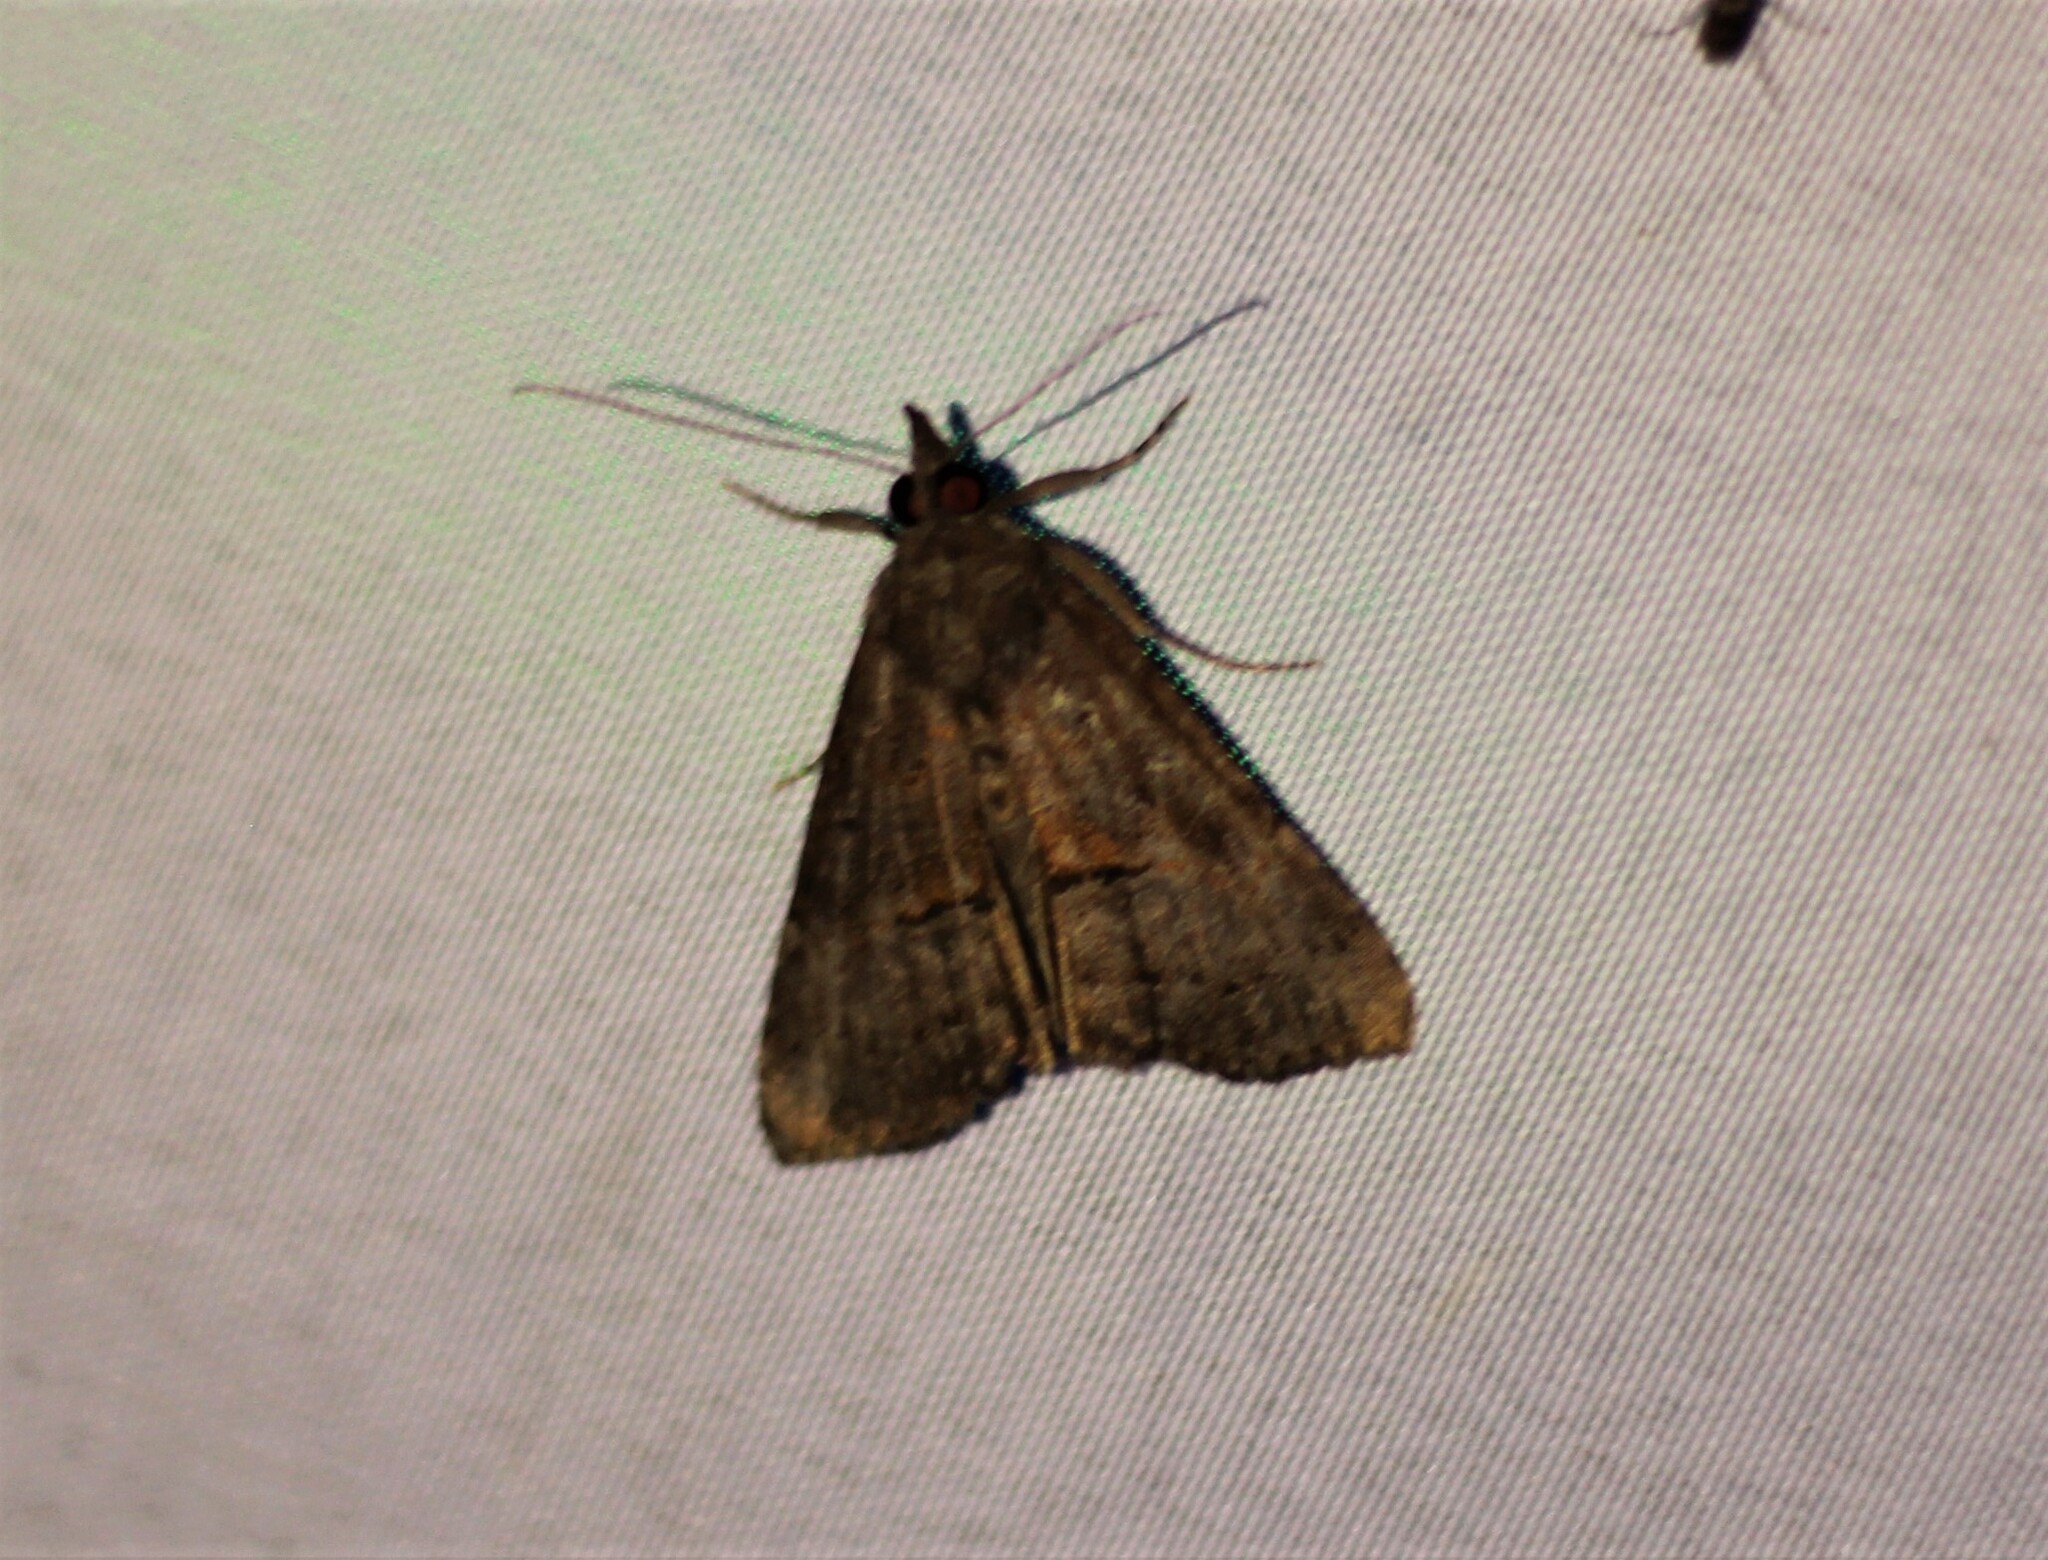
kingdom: Animalia
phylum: Arthropoda
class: Insecta
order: Lepidoptera
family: Erebidae
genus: Hypena
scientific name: Hypena scabra
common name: Green cloverworm
